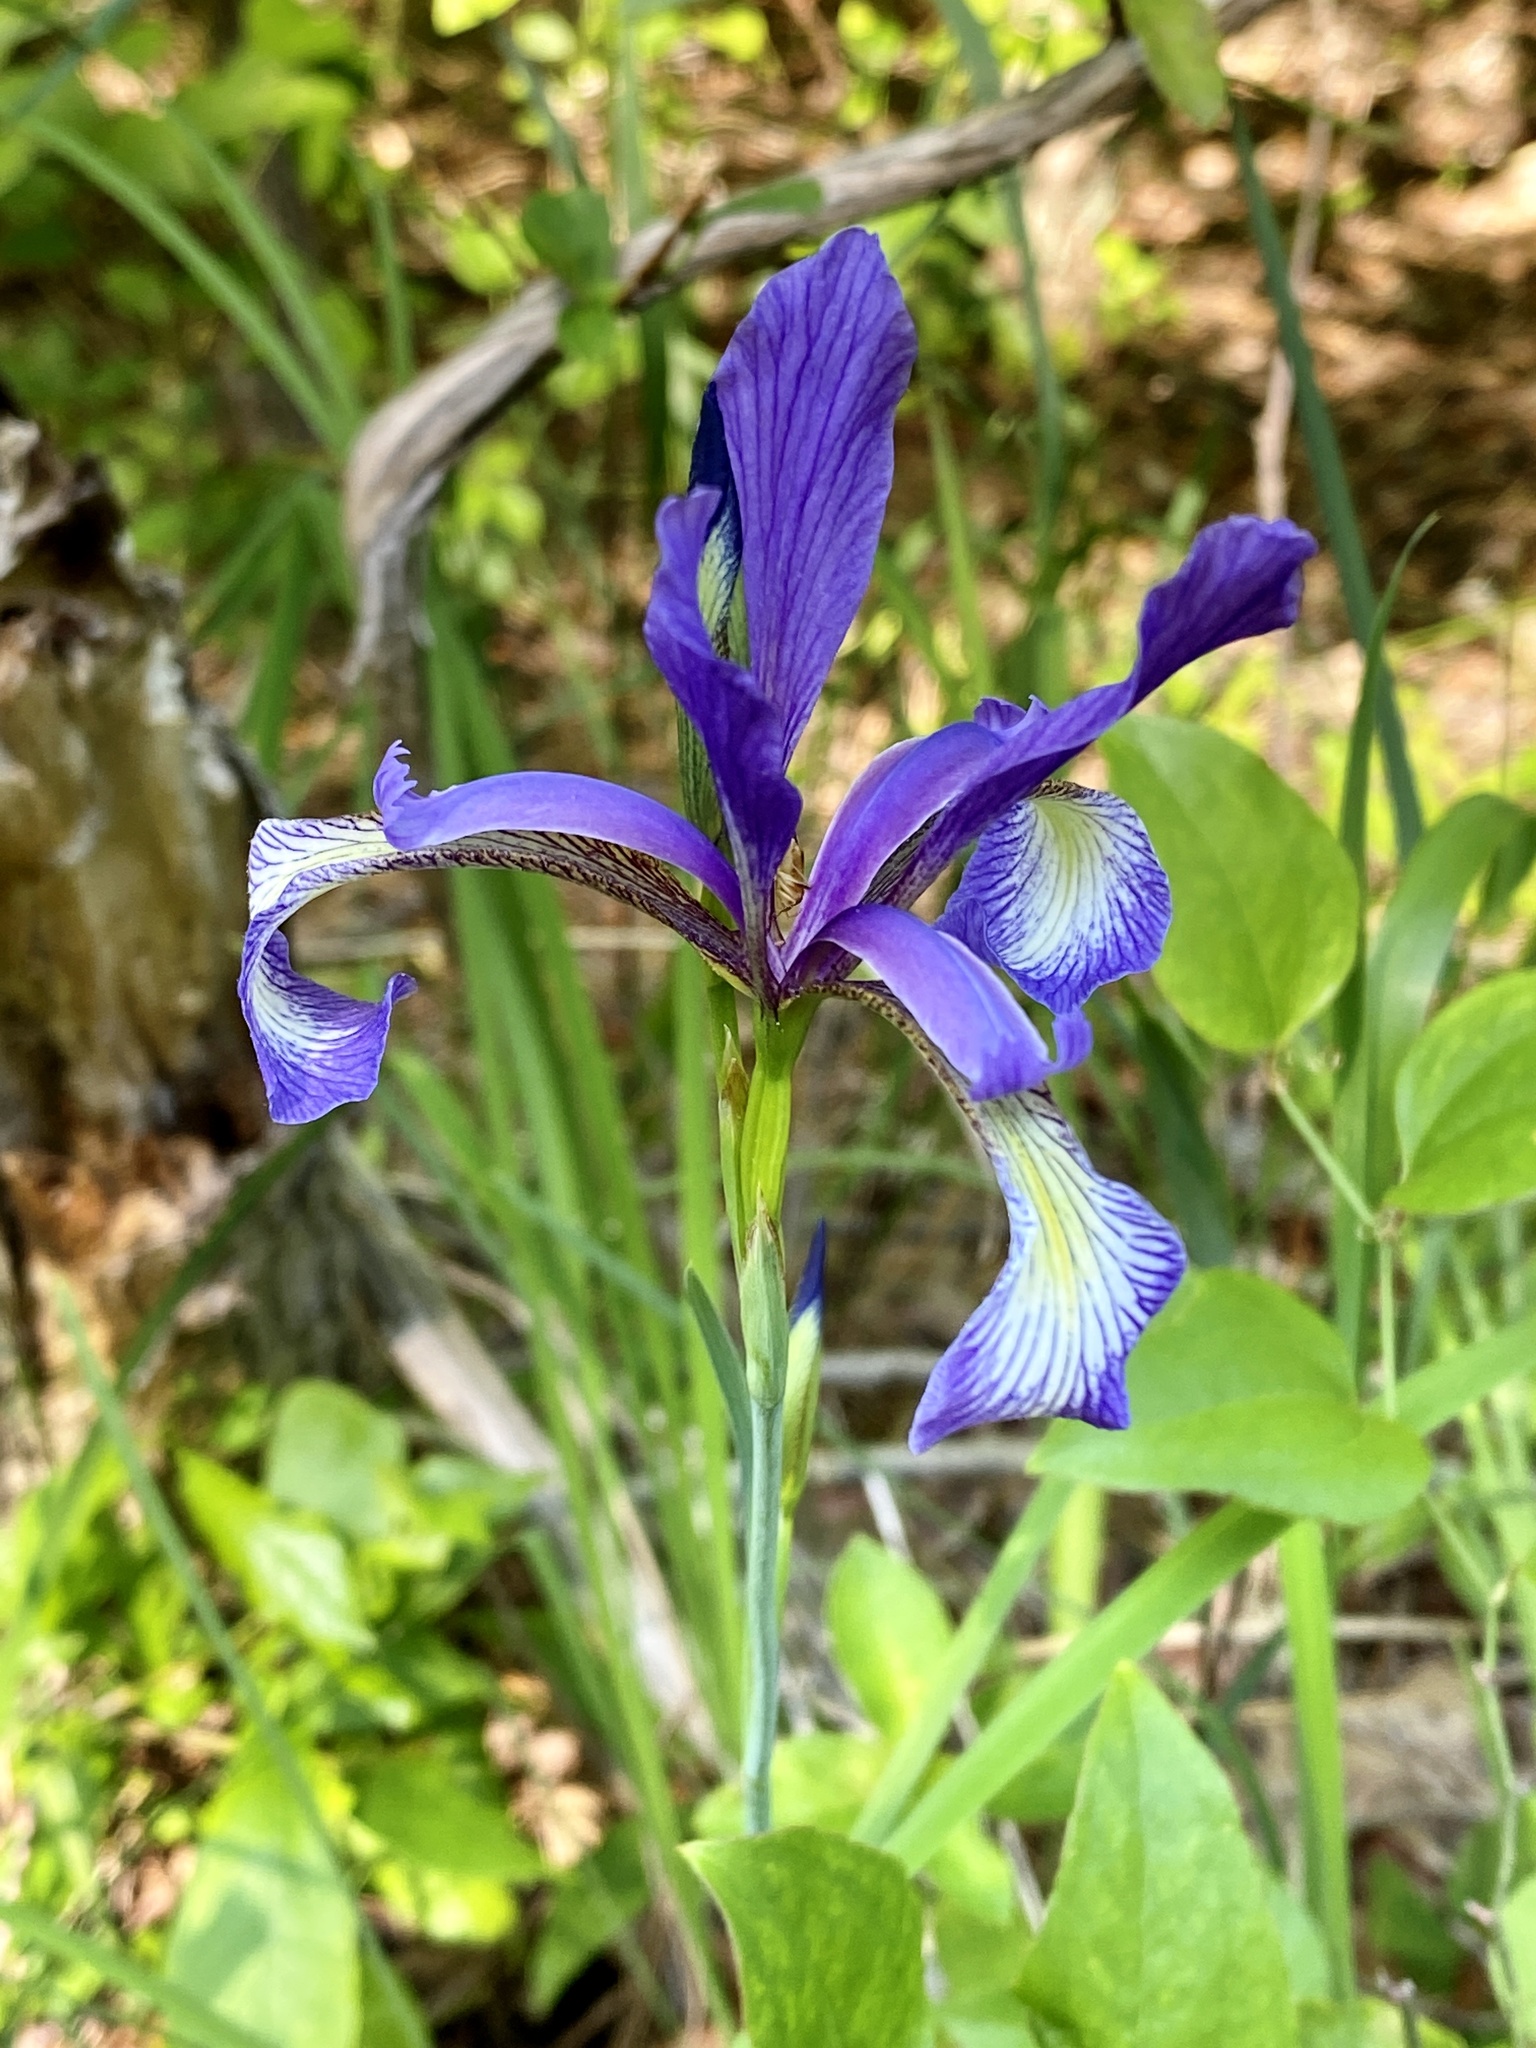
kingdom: Plantae
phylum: Tracheophyta
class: Liliopsida
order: Asparagales
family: Iridaceae
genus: Iris
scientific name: Iris prismatica
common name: Slender blue flag
